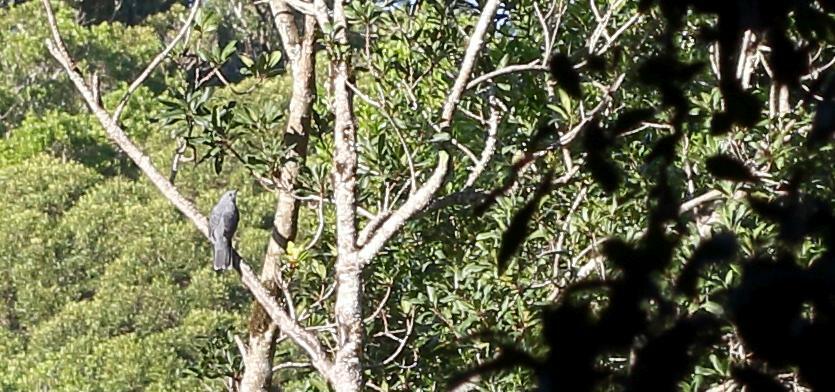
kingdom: Animalia
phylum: Chordata
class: Aves
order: Passeriformes
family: Campephagidae
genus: Coracina
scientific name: Coracina caesia
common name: Grey cuckooshrike
